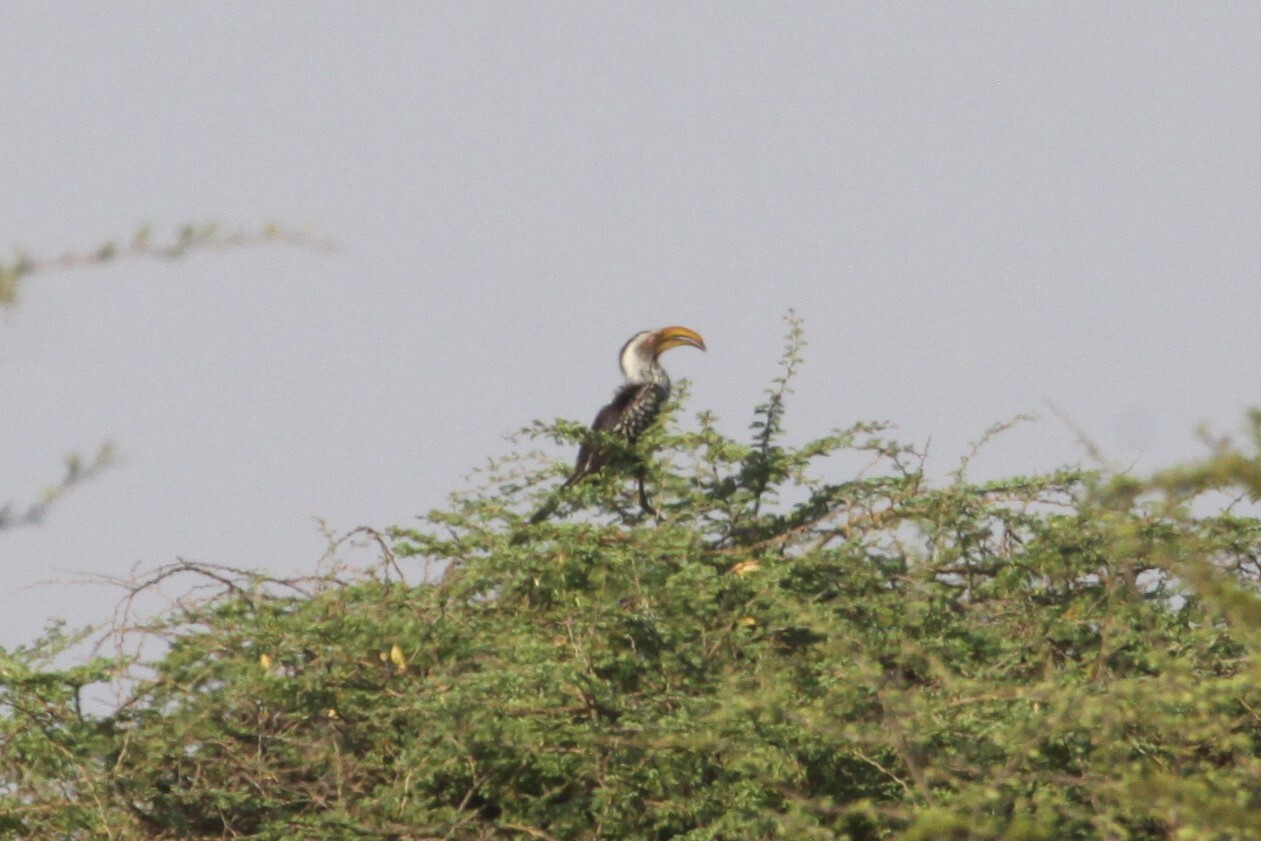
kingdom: Animalia
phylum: Chordata
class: Aves
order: Bucerotiformes
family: Bucerotidae
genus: Tockus
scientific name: Tockus leucomelas
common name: Southern yellow-billed hornbill
